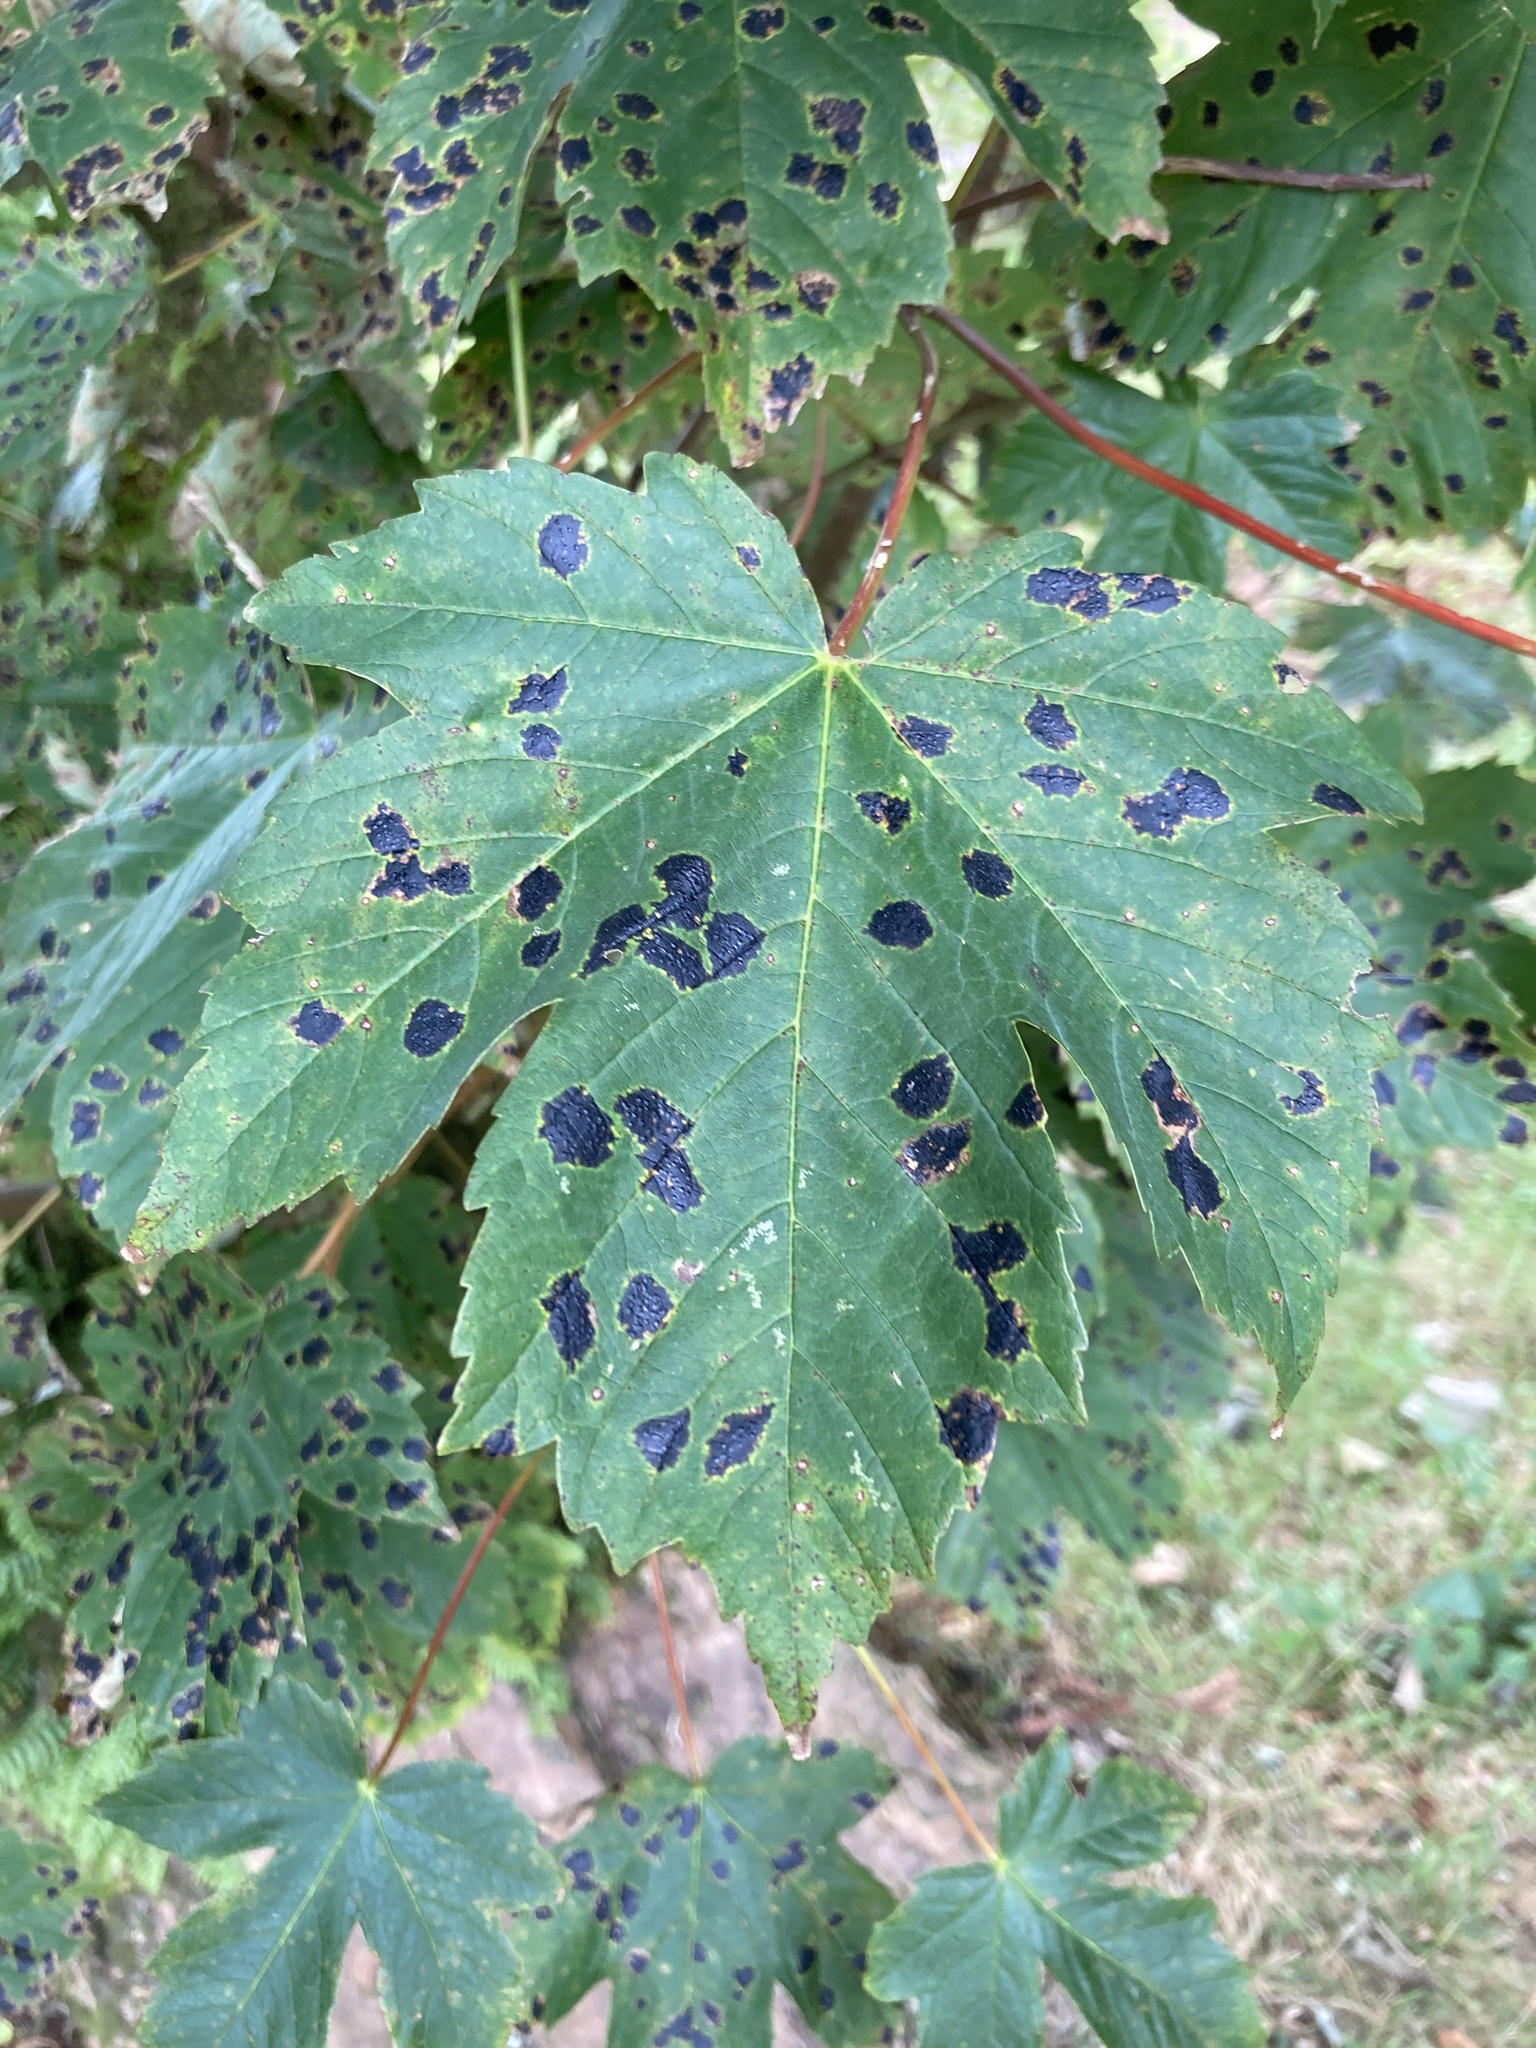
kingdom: Fungi
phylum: Ascomycota
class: Leotiomycetes
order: Rhytismatales
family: Rhytismataceae
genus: Rhytisma
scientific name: Rhytisma acerinum
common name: European tar spot
